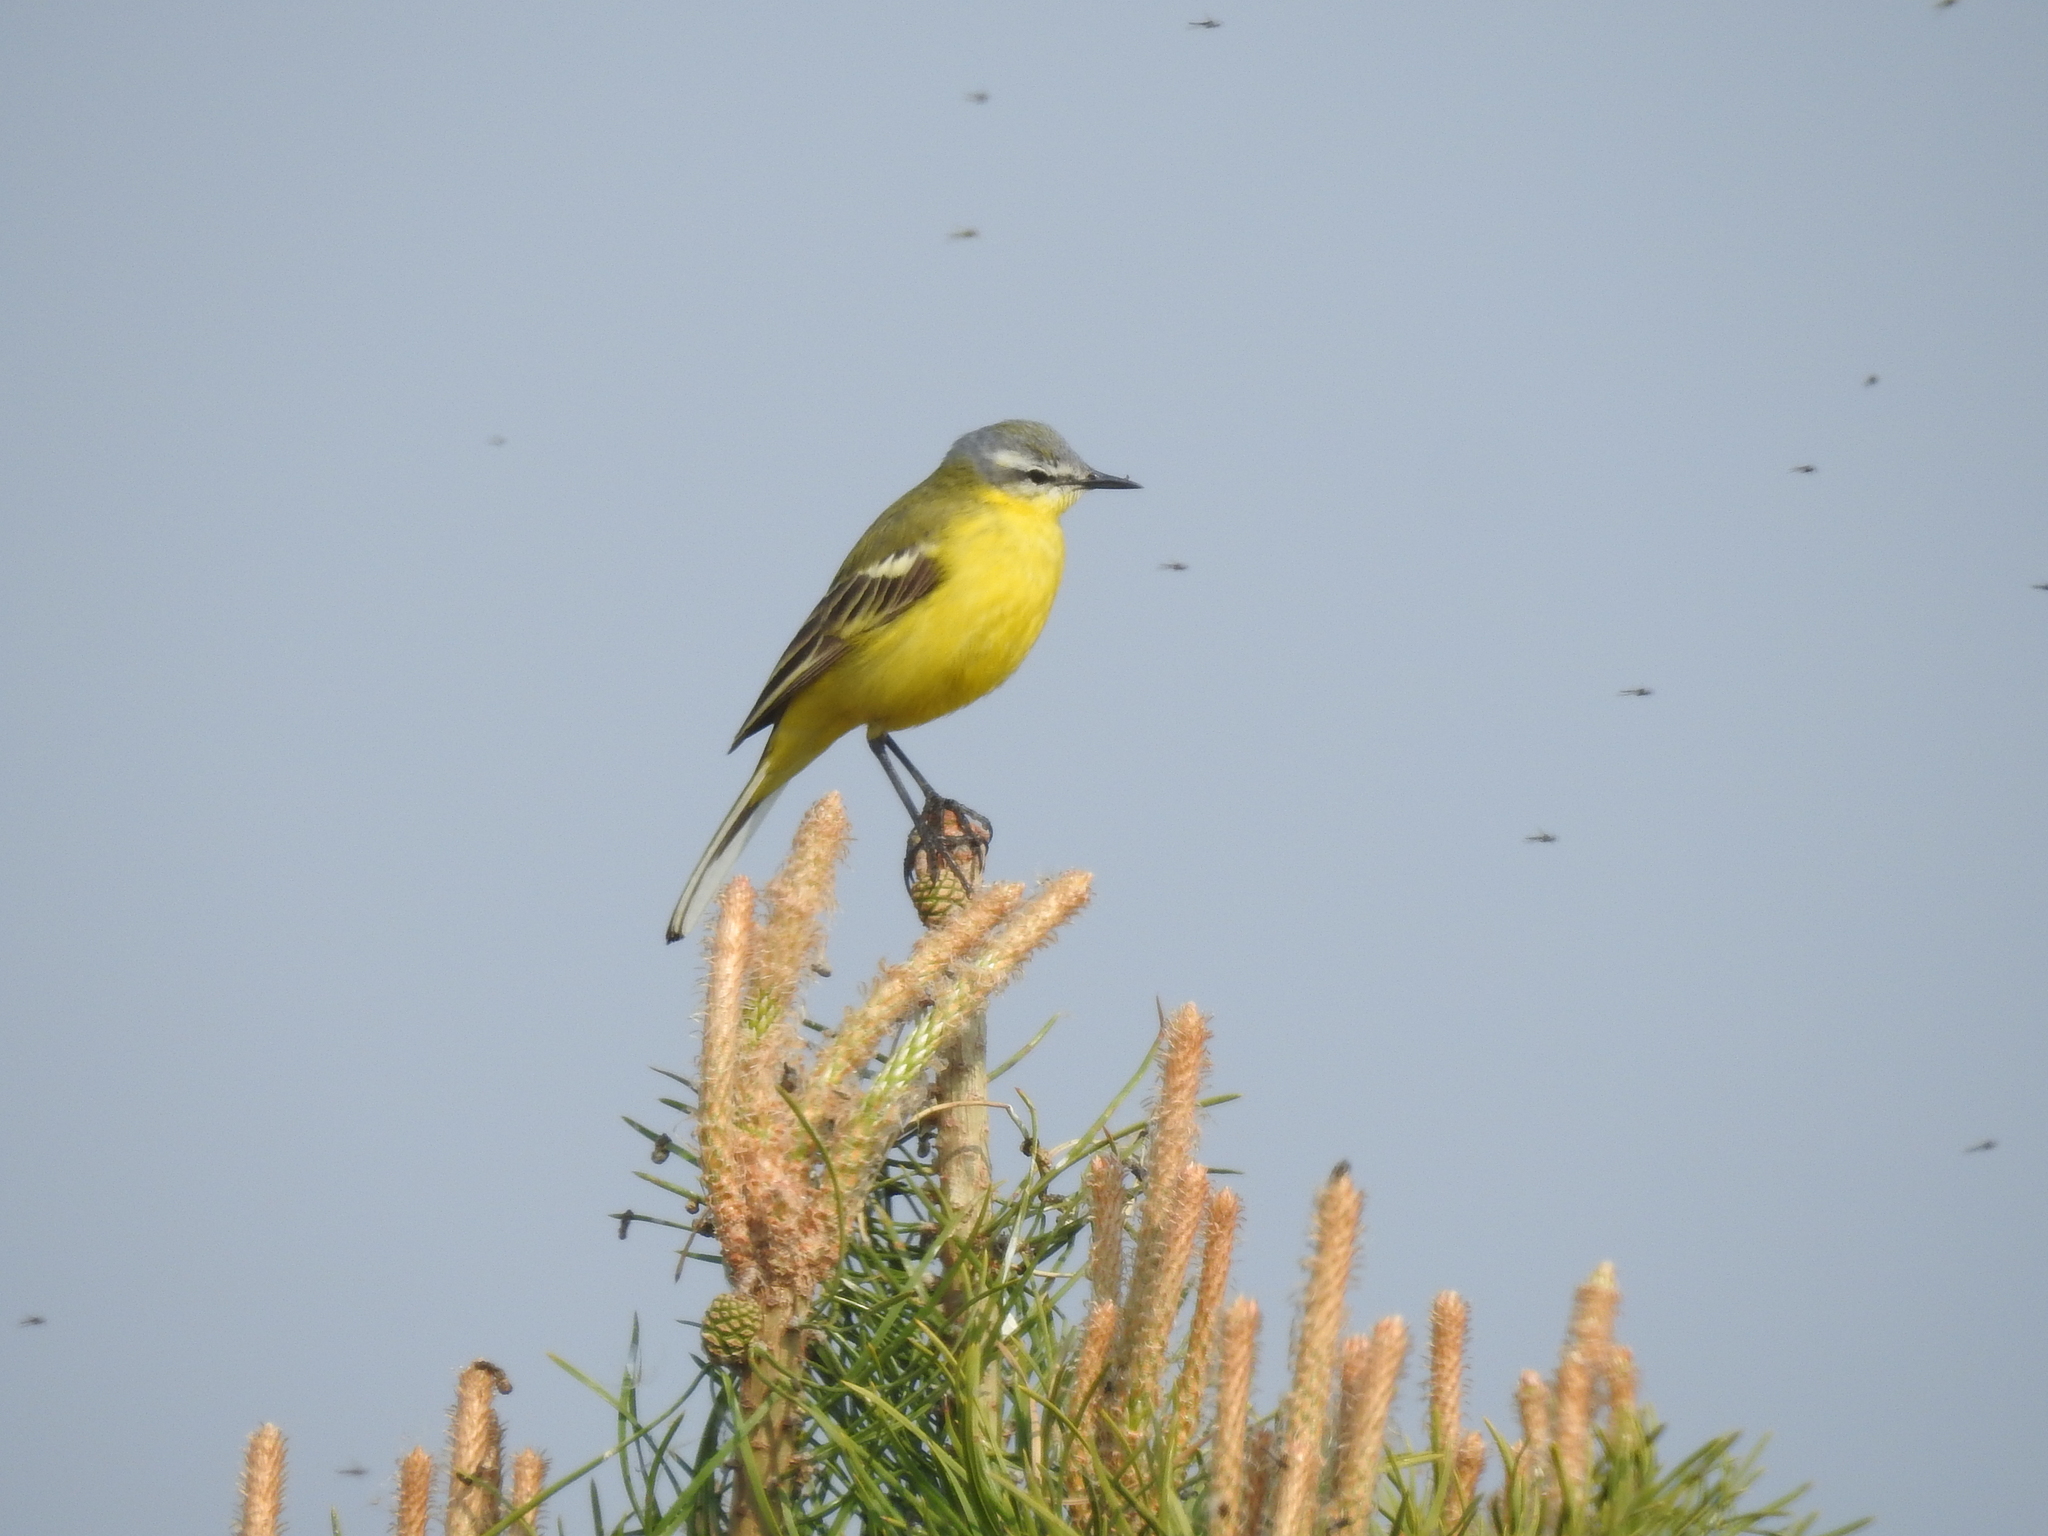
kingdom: Animalia
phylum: Chordata
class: Aves
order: Passeriformes
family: Motacillidae
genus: Motacilla
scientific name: Motacilla flava
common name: Western yellow wagtail
